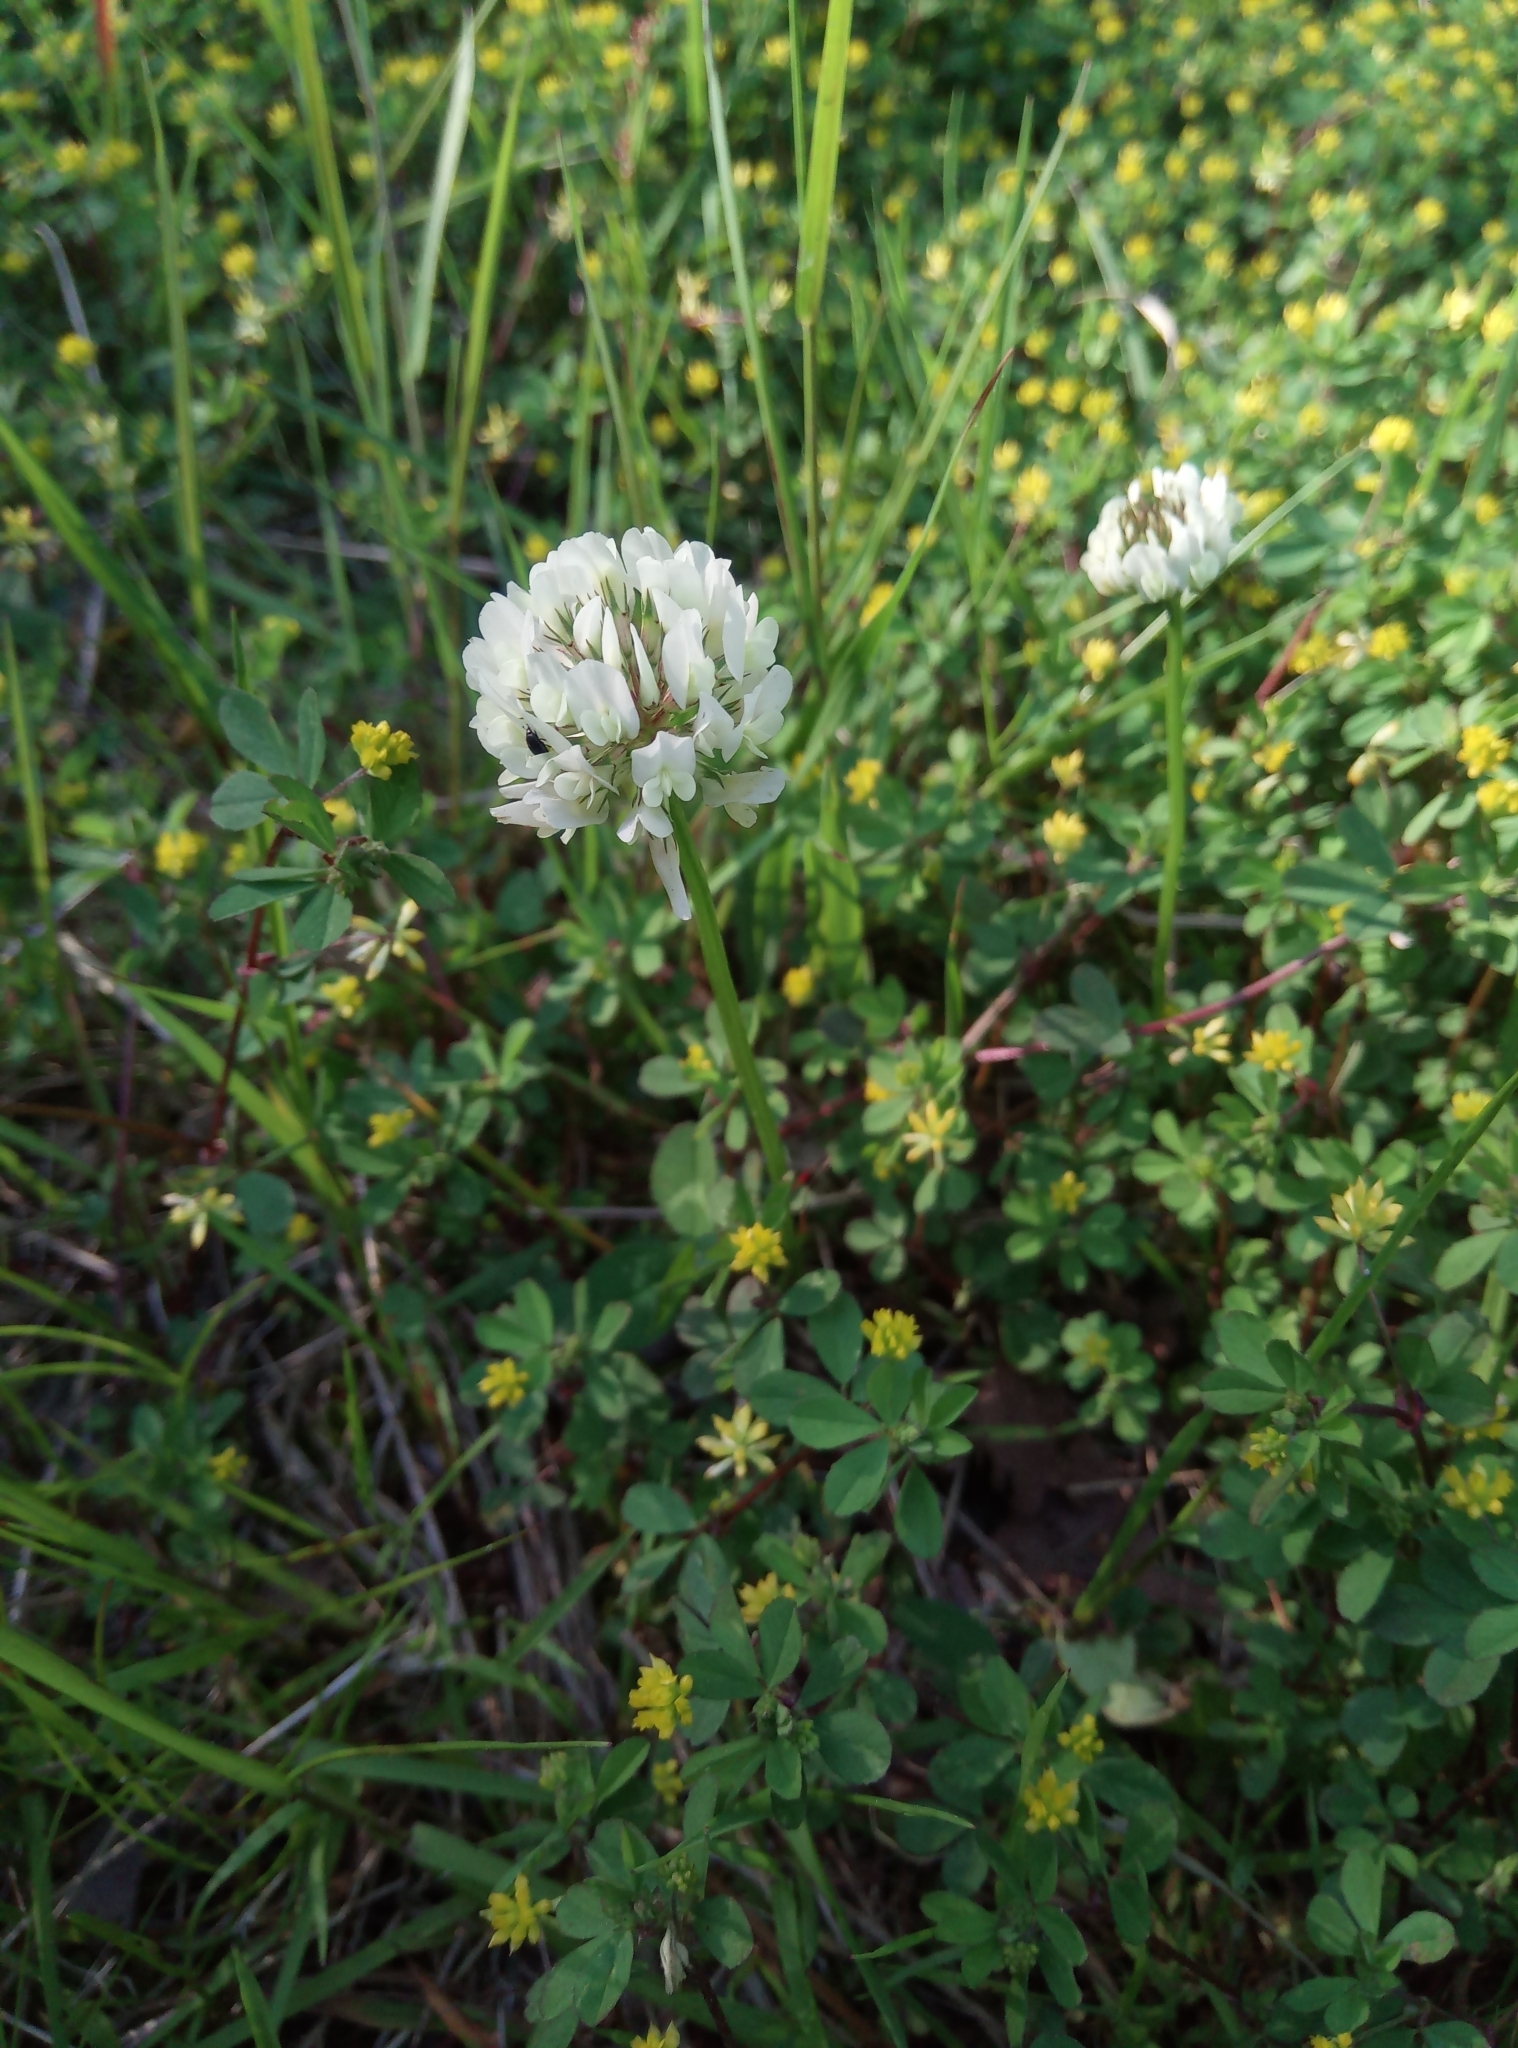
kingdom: Plantae
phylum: Tracheophyta
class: Magnoliopsida
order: Fabales
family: Fabaceae
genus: Trifolium
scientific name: Trifolium repens
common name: White clover
